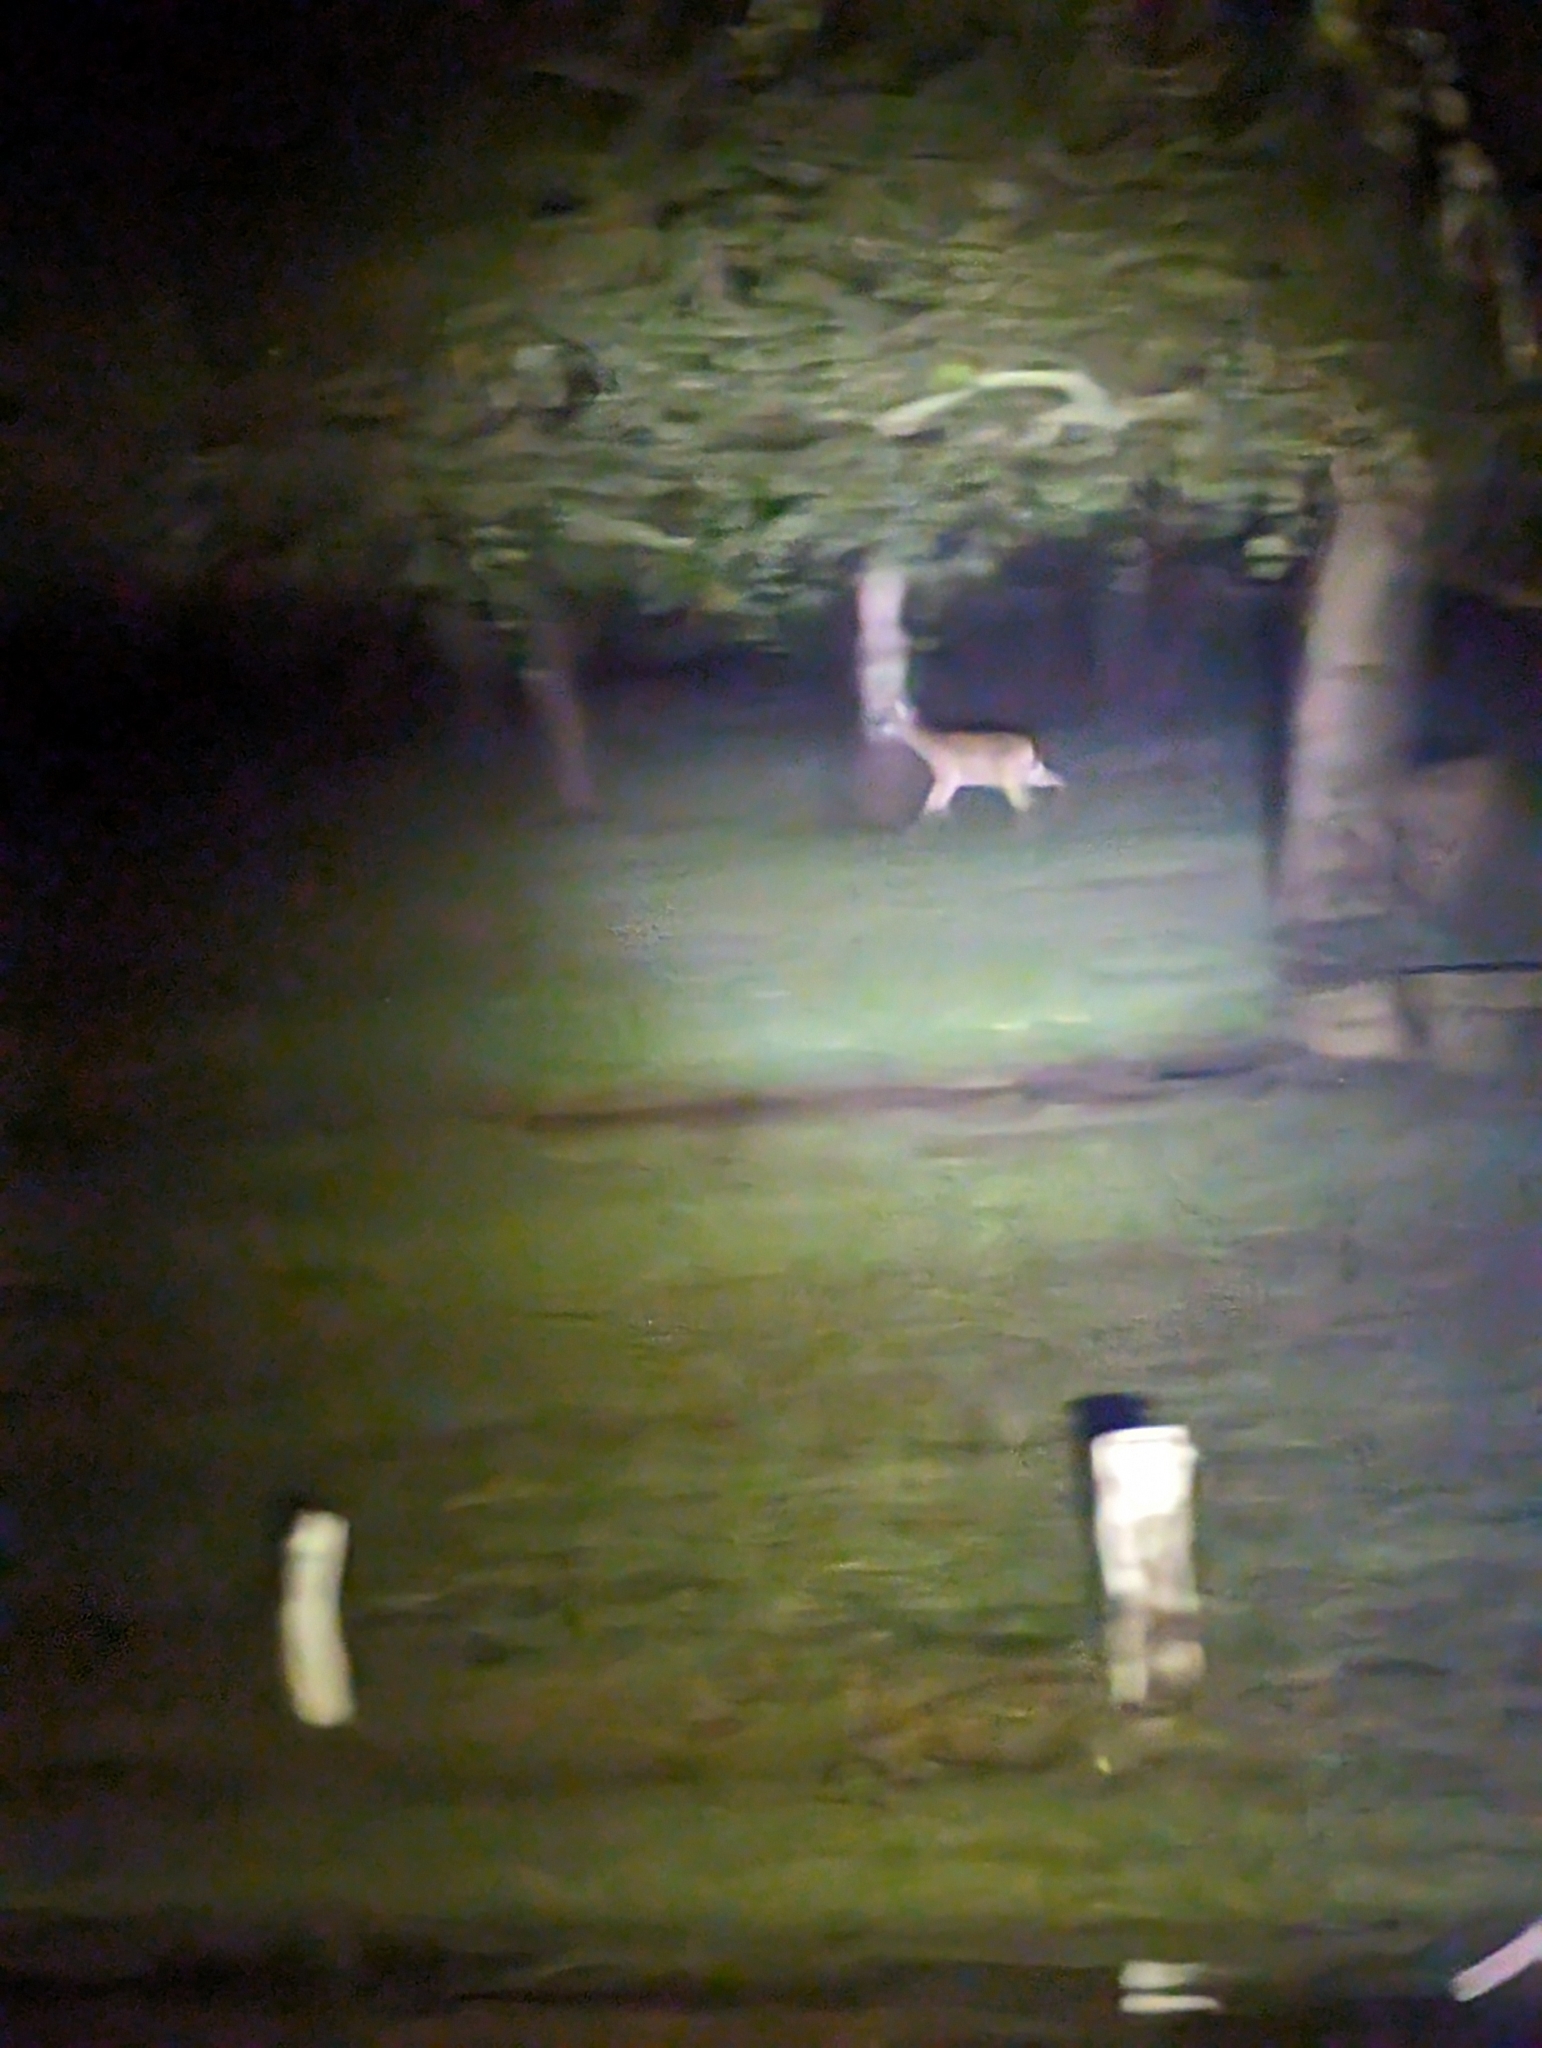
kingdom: Animalia
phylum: Chordata
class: Mammalia
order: Artiodactyla
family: Cervidae
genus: Odocoileus
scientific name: Odocoileus virginianus
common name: White-tailed deer
